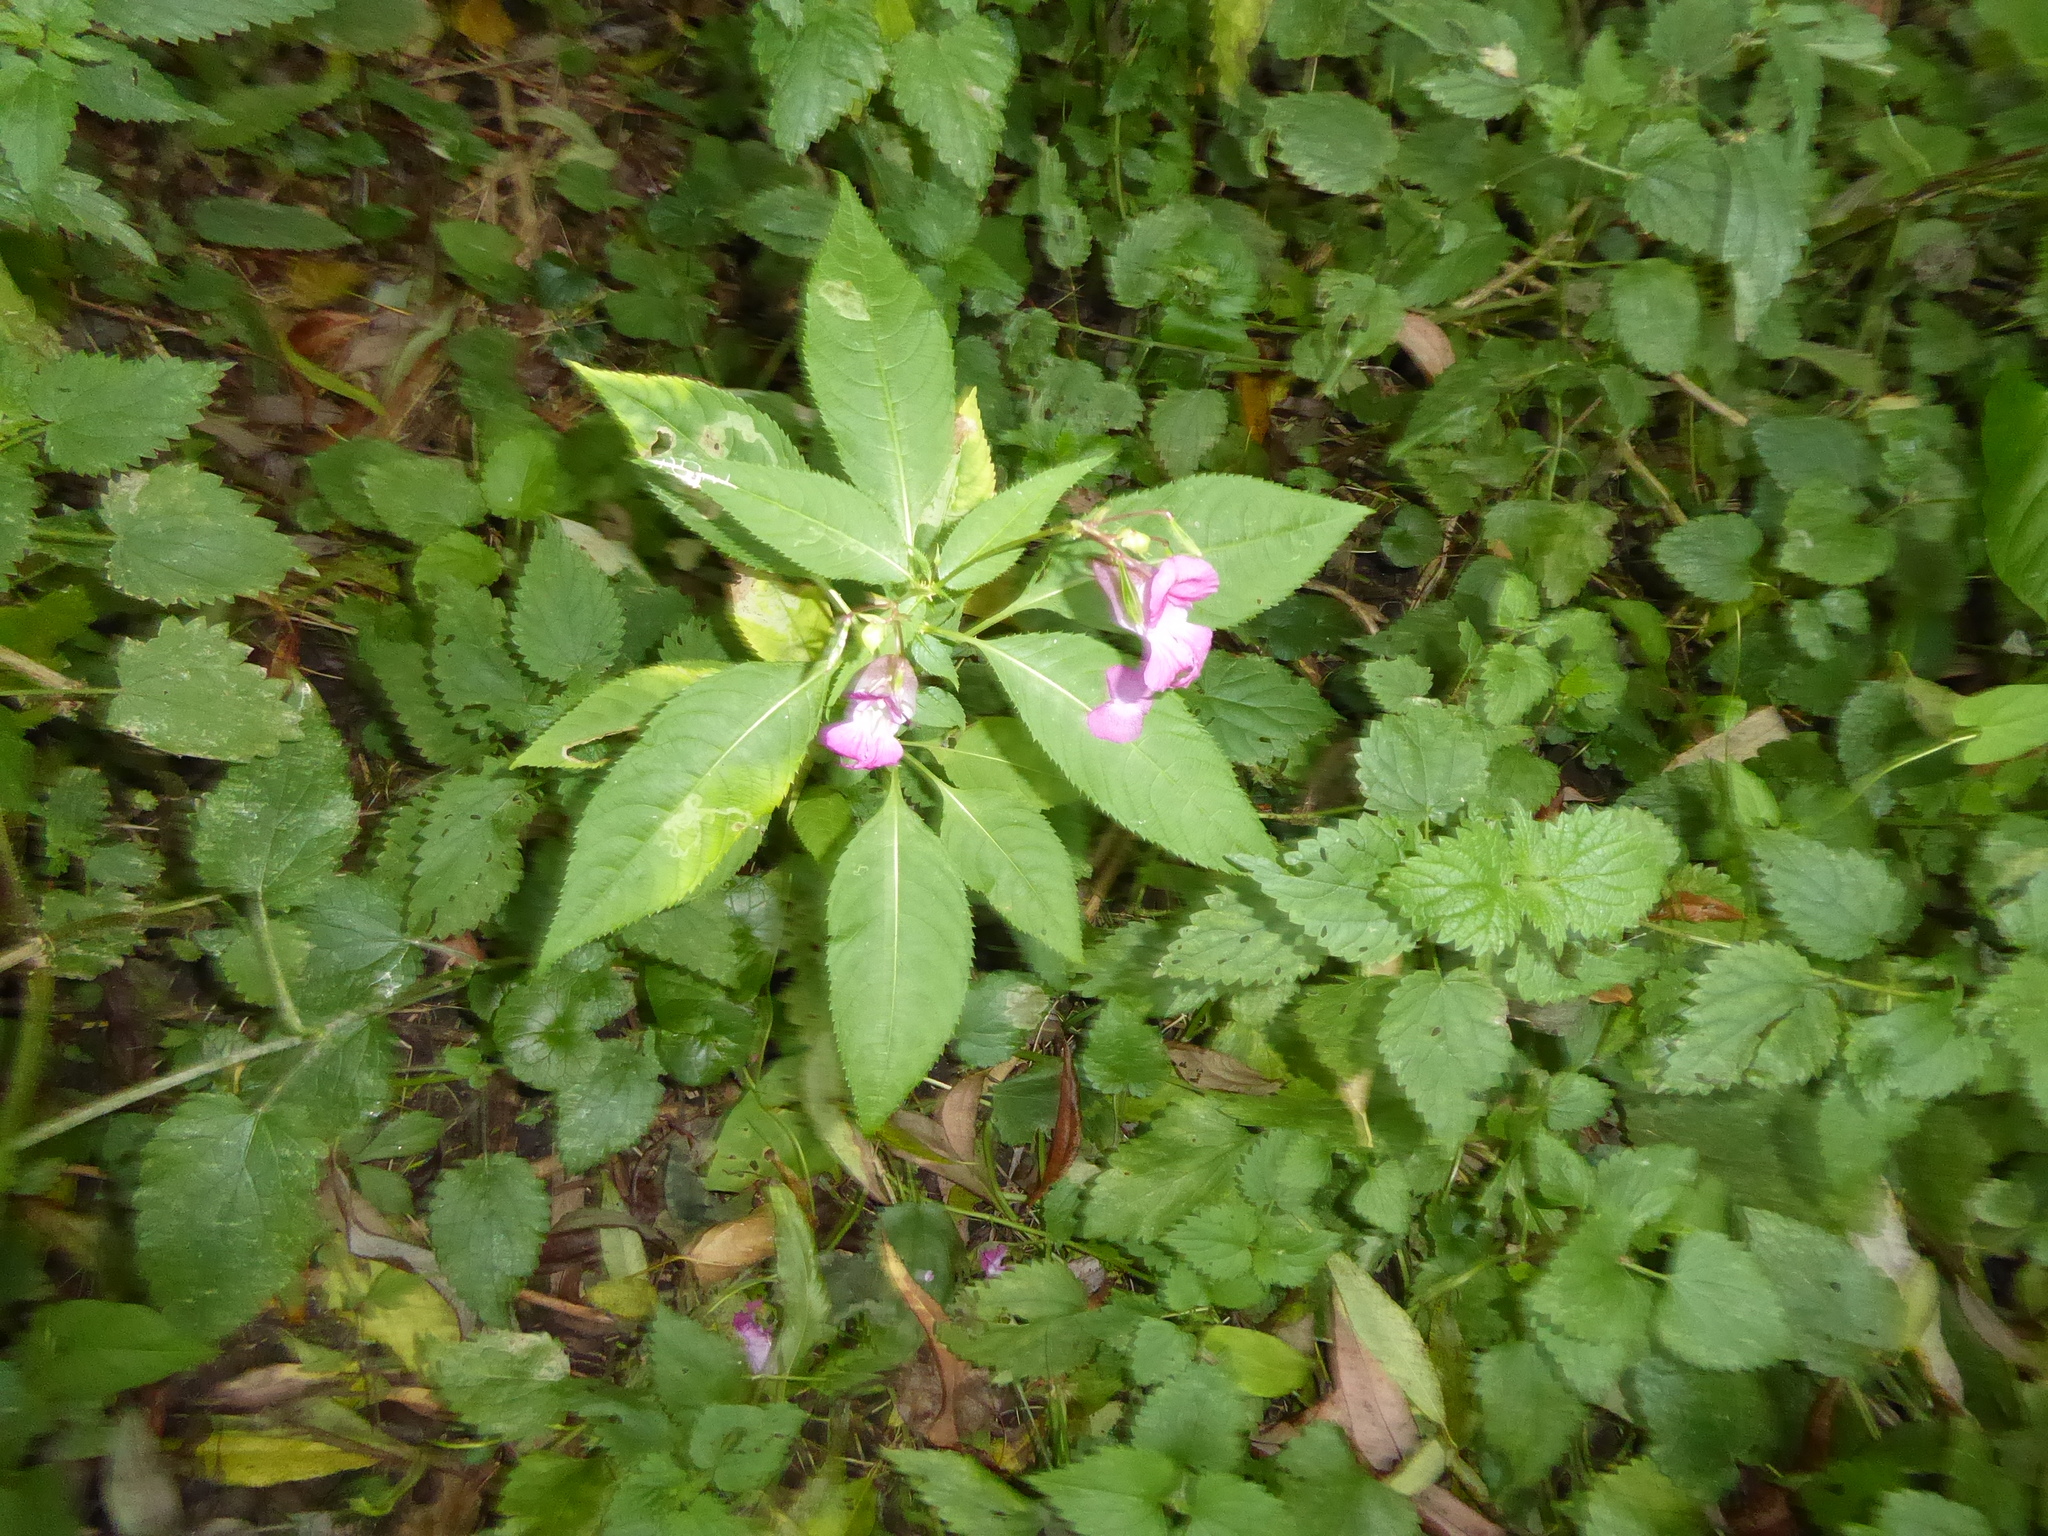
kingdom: Plantae
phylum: Tracheophyta
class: Magnoliopsida
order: Ericales
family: Balsaminaceae
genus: Impatiens
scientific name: Impatiens glandulifera
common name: Himalayan balsam
